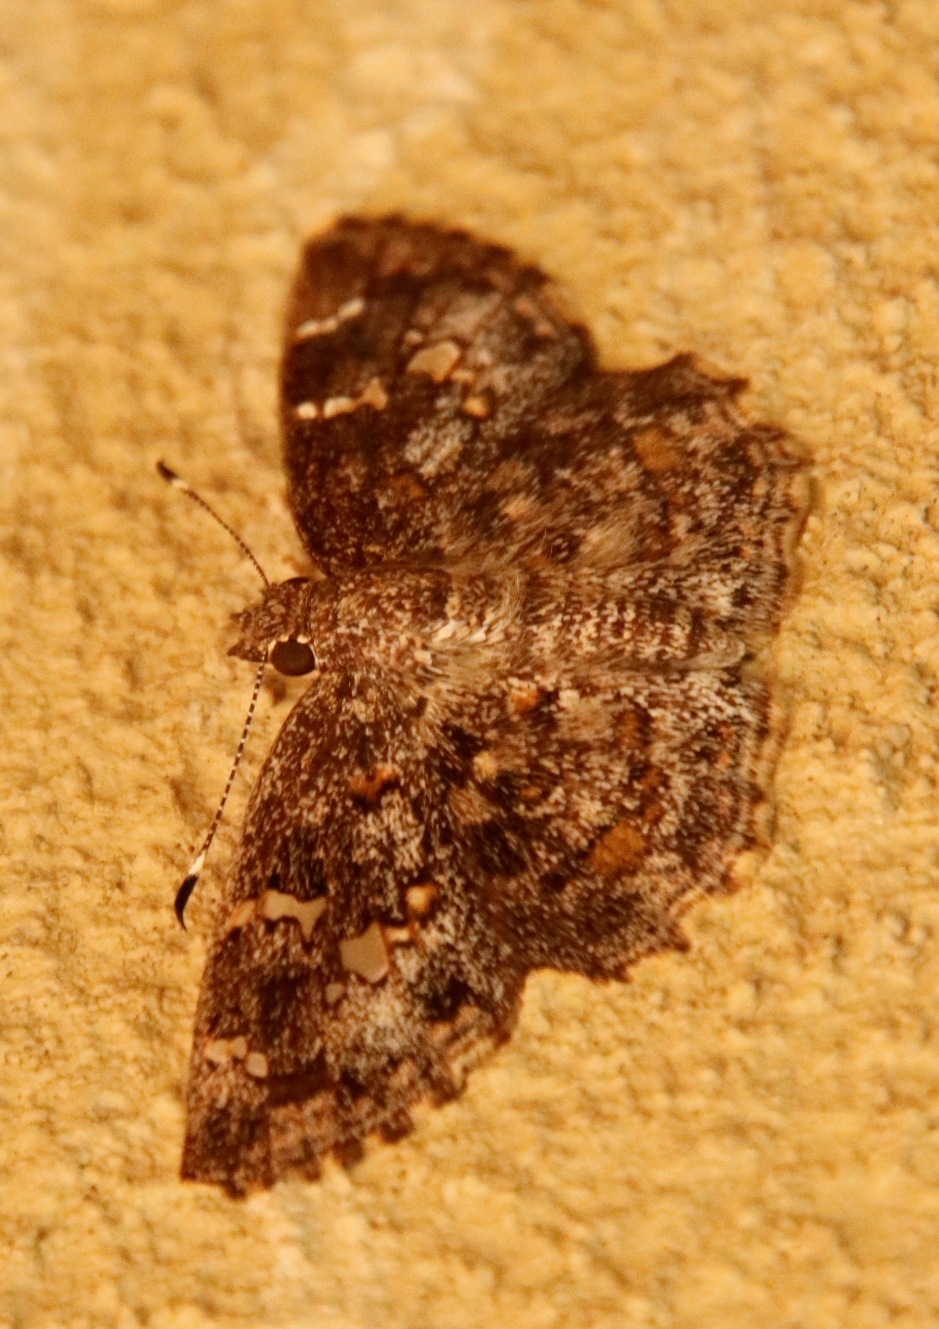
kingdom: Animalia
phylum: Arthropoda
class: Insecta
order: Lepidoptera
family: Hesperiidae
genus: Sarangesa
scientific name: Sarangesa seineri
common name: Dark elfin
